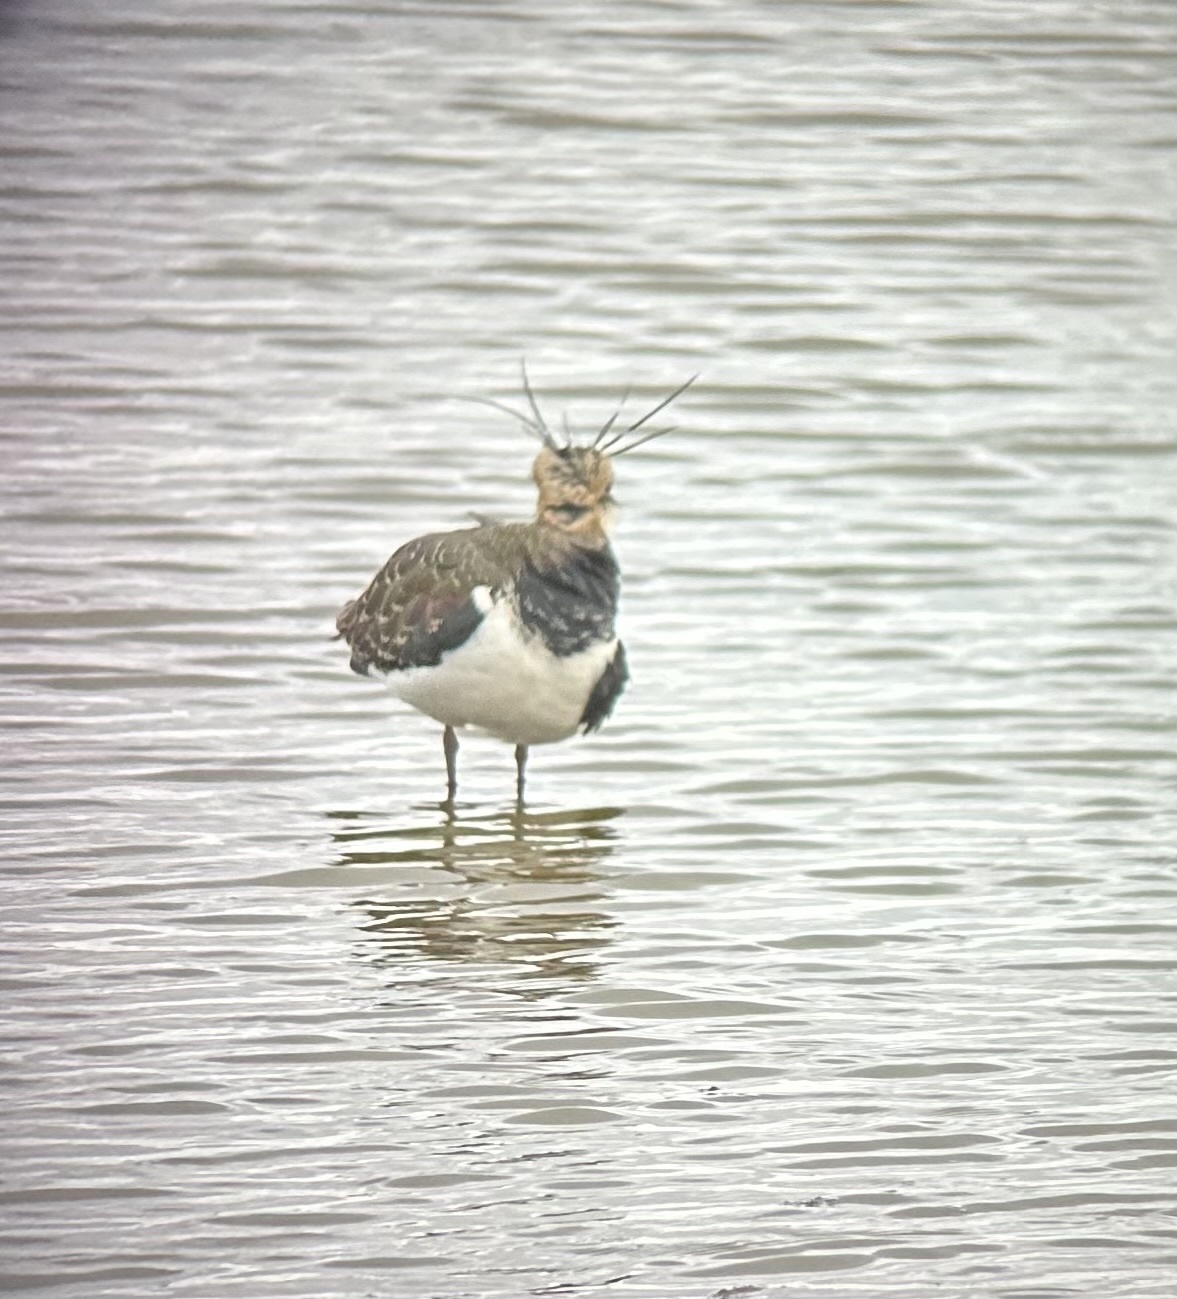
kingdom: Animalia
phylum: Chordata
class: Aves
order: Charadriiformes
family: Charadriidae
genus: Vanellus
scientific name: Vanellus vanellus
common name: Northern lapwing
